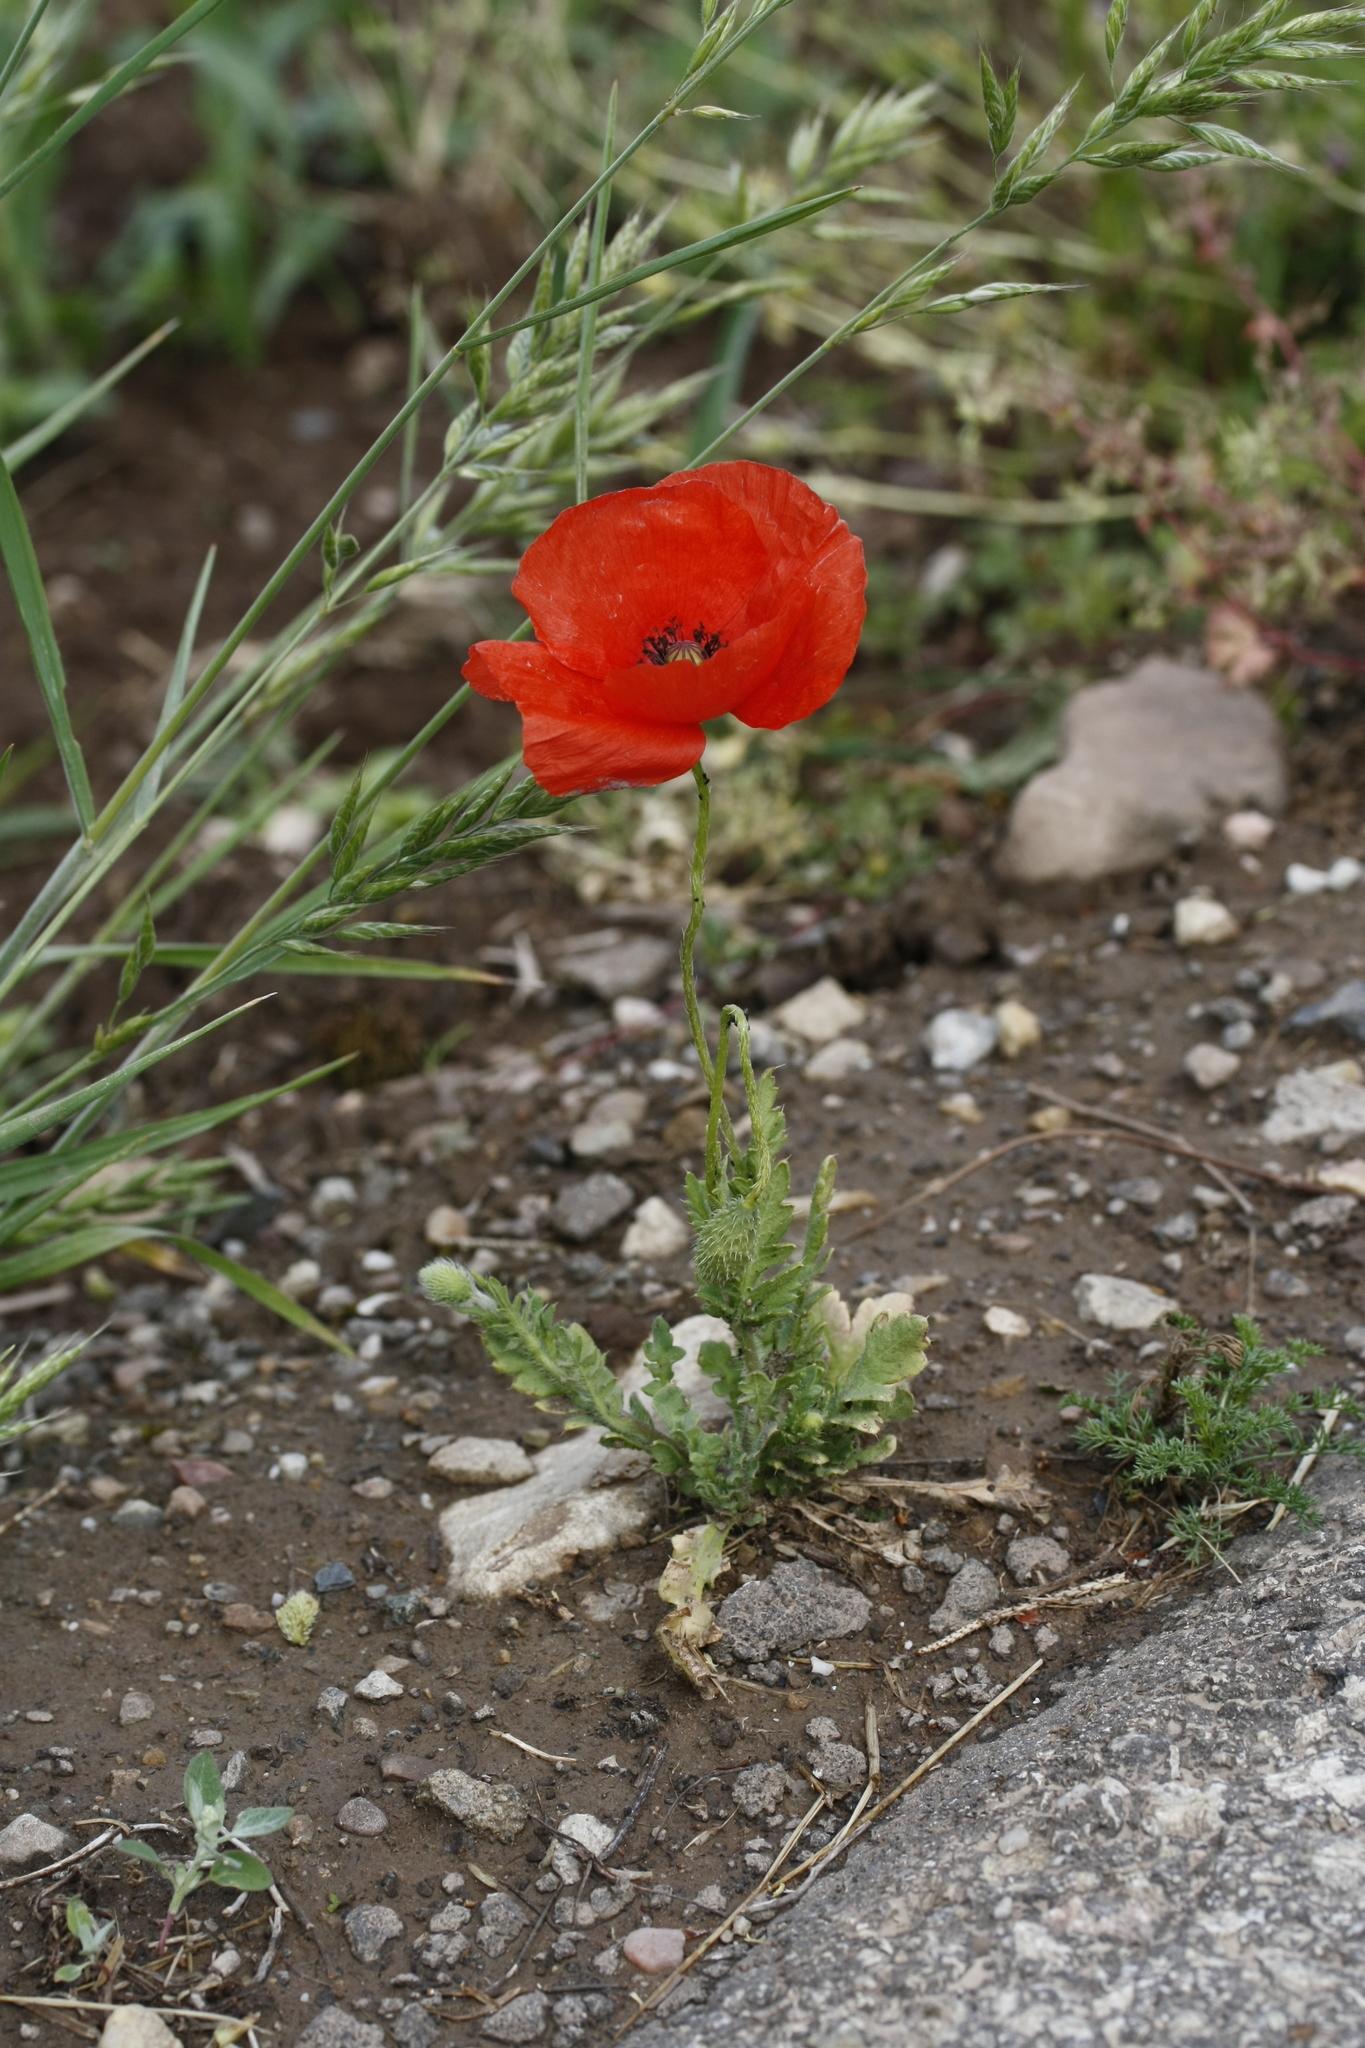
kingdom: Plantae
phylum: Tracheophyta
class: Magnoliopsida
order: Ranunculales
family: Papaveraceae
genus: Papaver
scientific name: Papaver rhoeas
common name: Corn poppy
